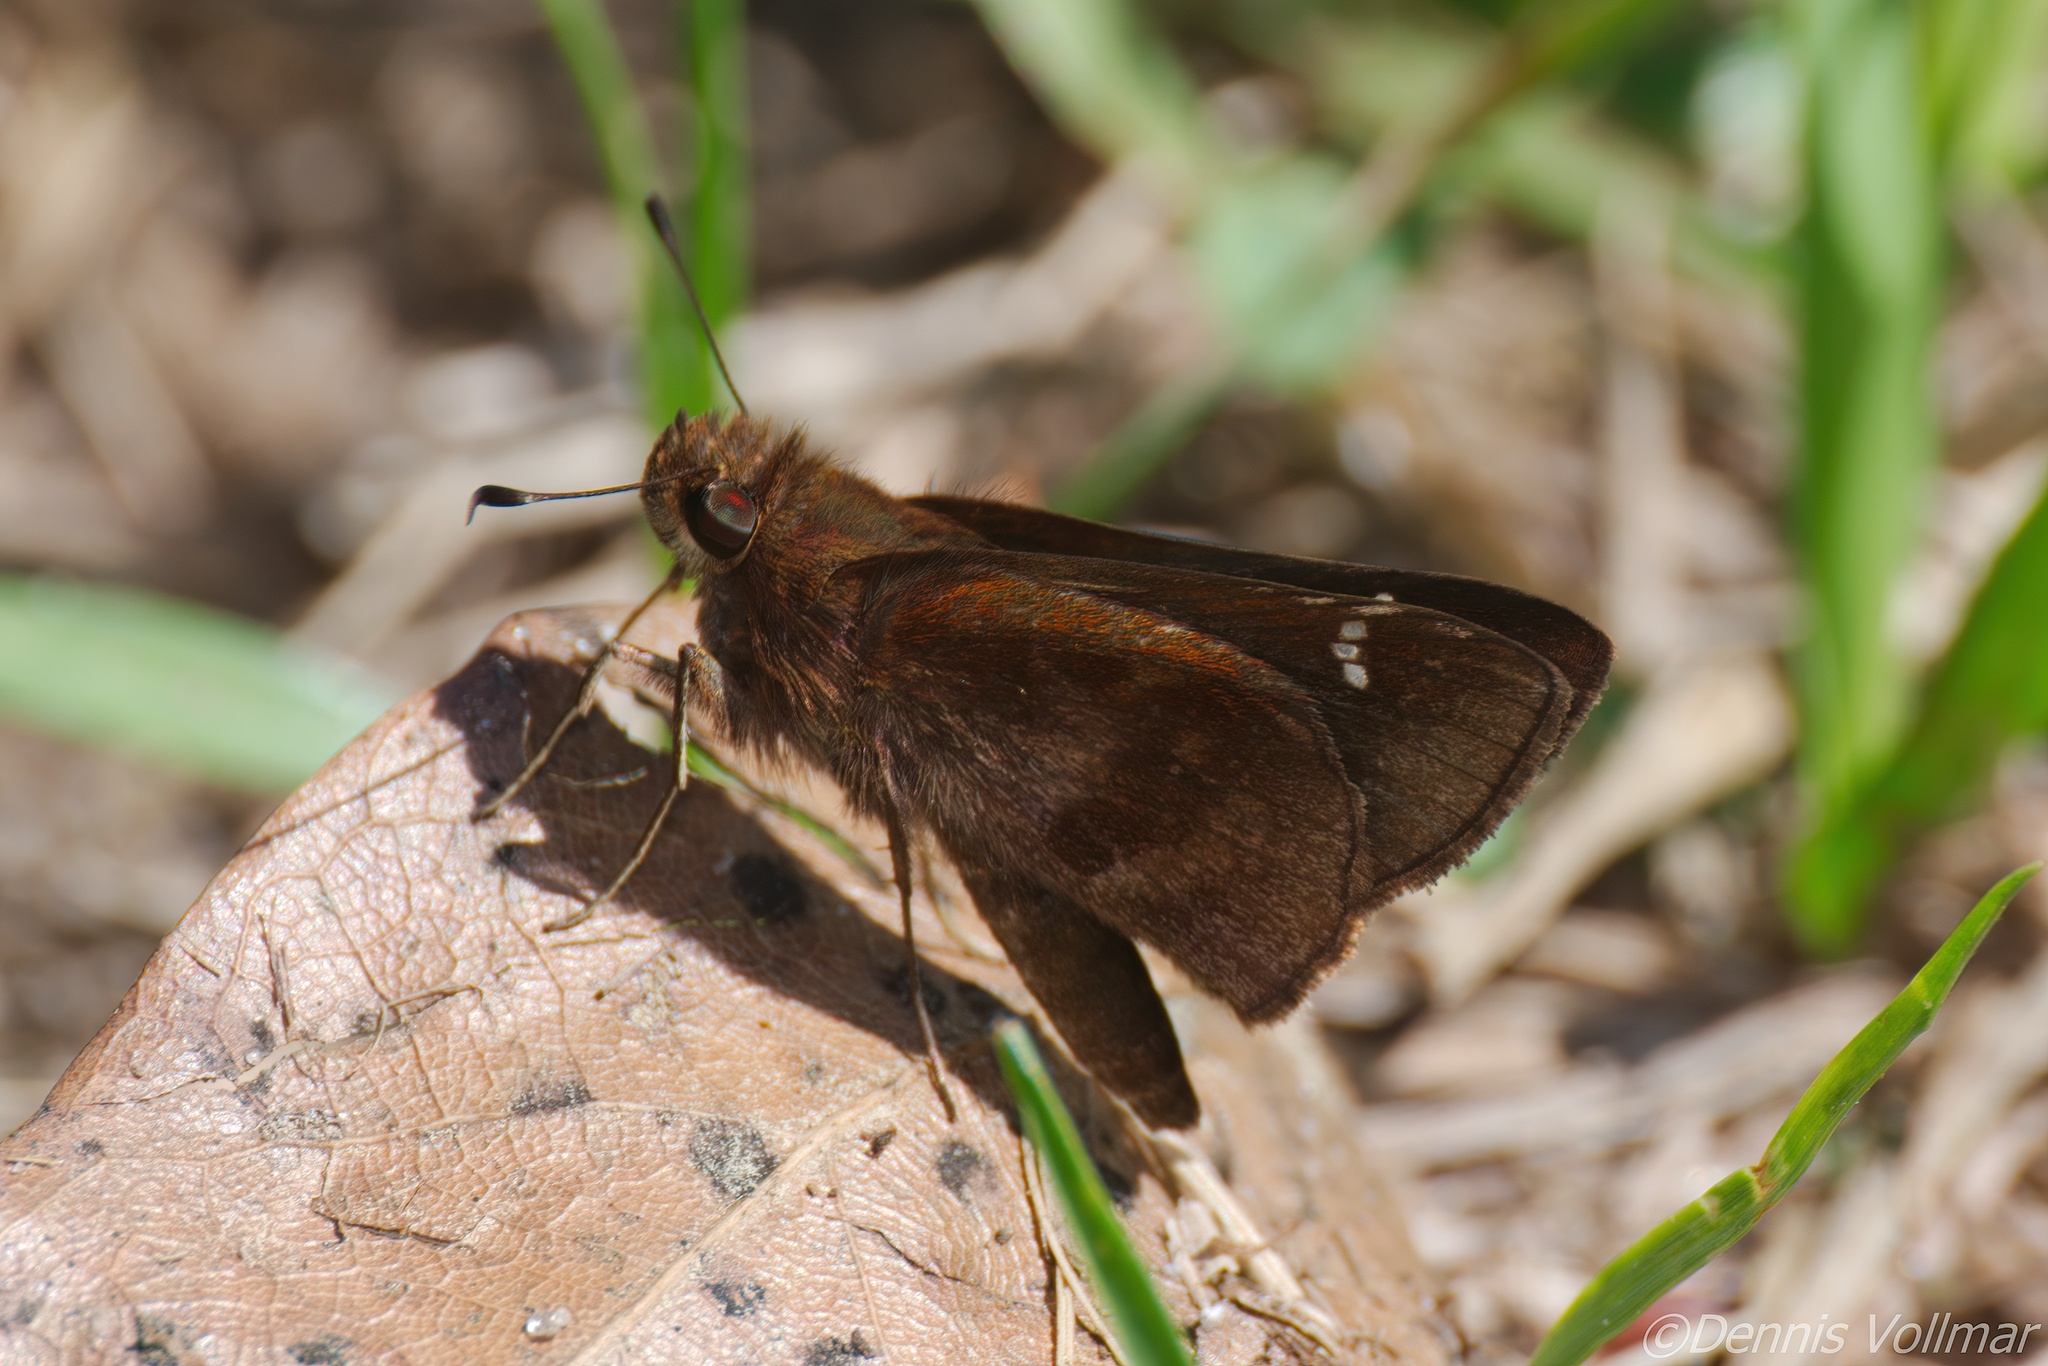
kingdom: Animalia
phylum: Arthropoda
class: Insecta
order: Lepidoptera
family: Hesperiidae
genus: Lerema
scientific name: Lerema accius
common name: Clouded skipper
